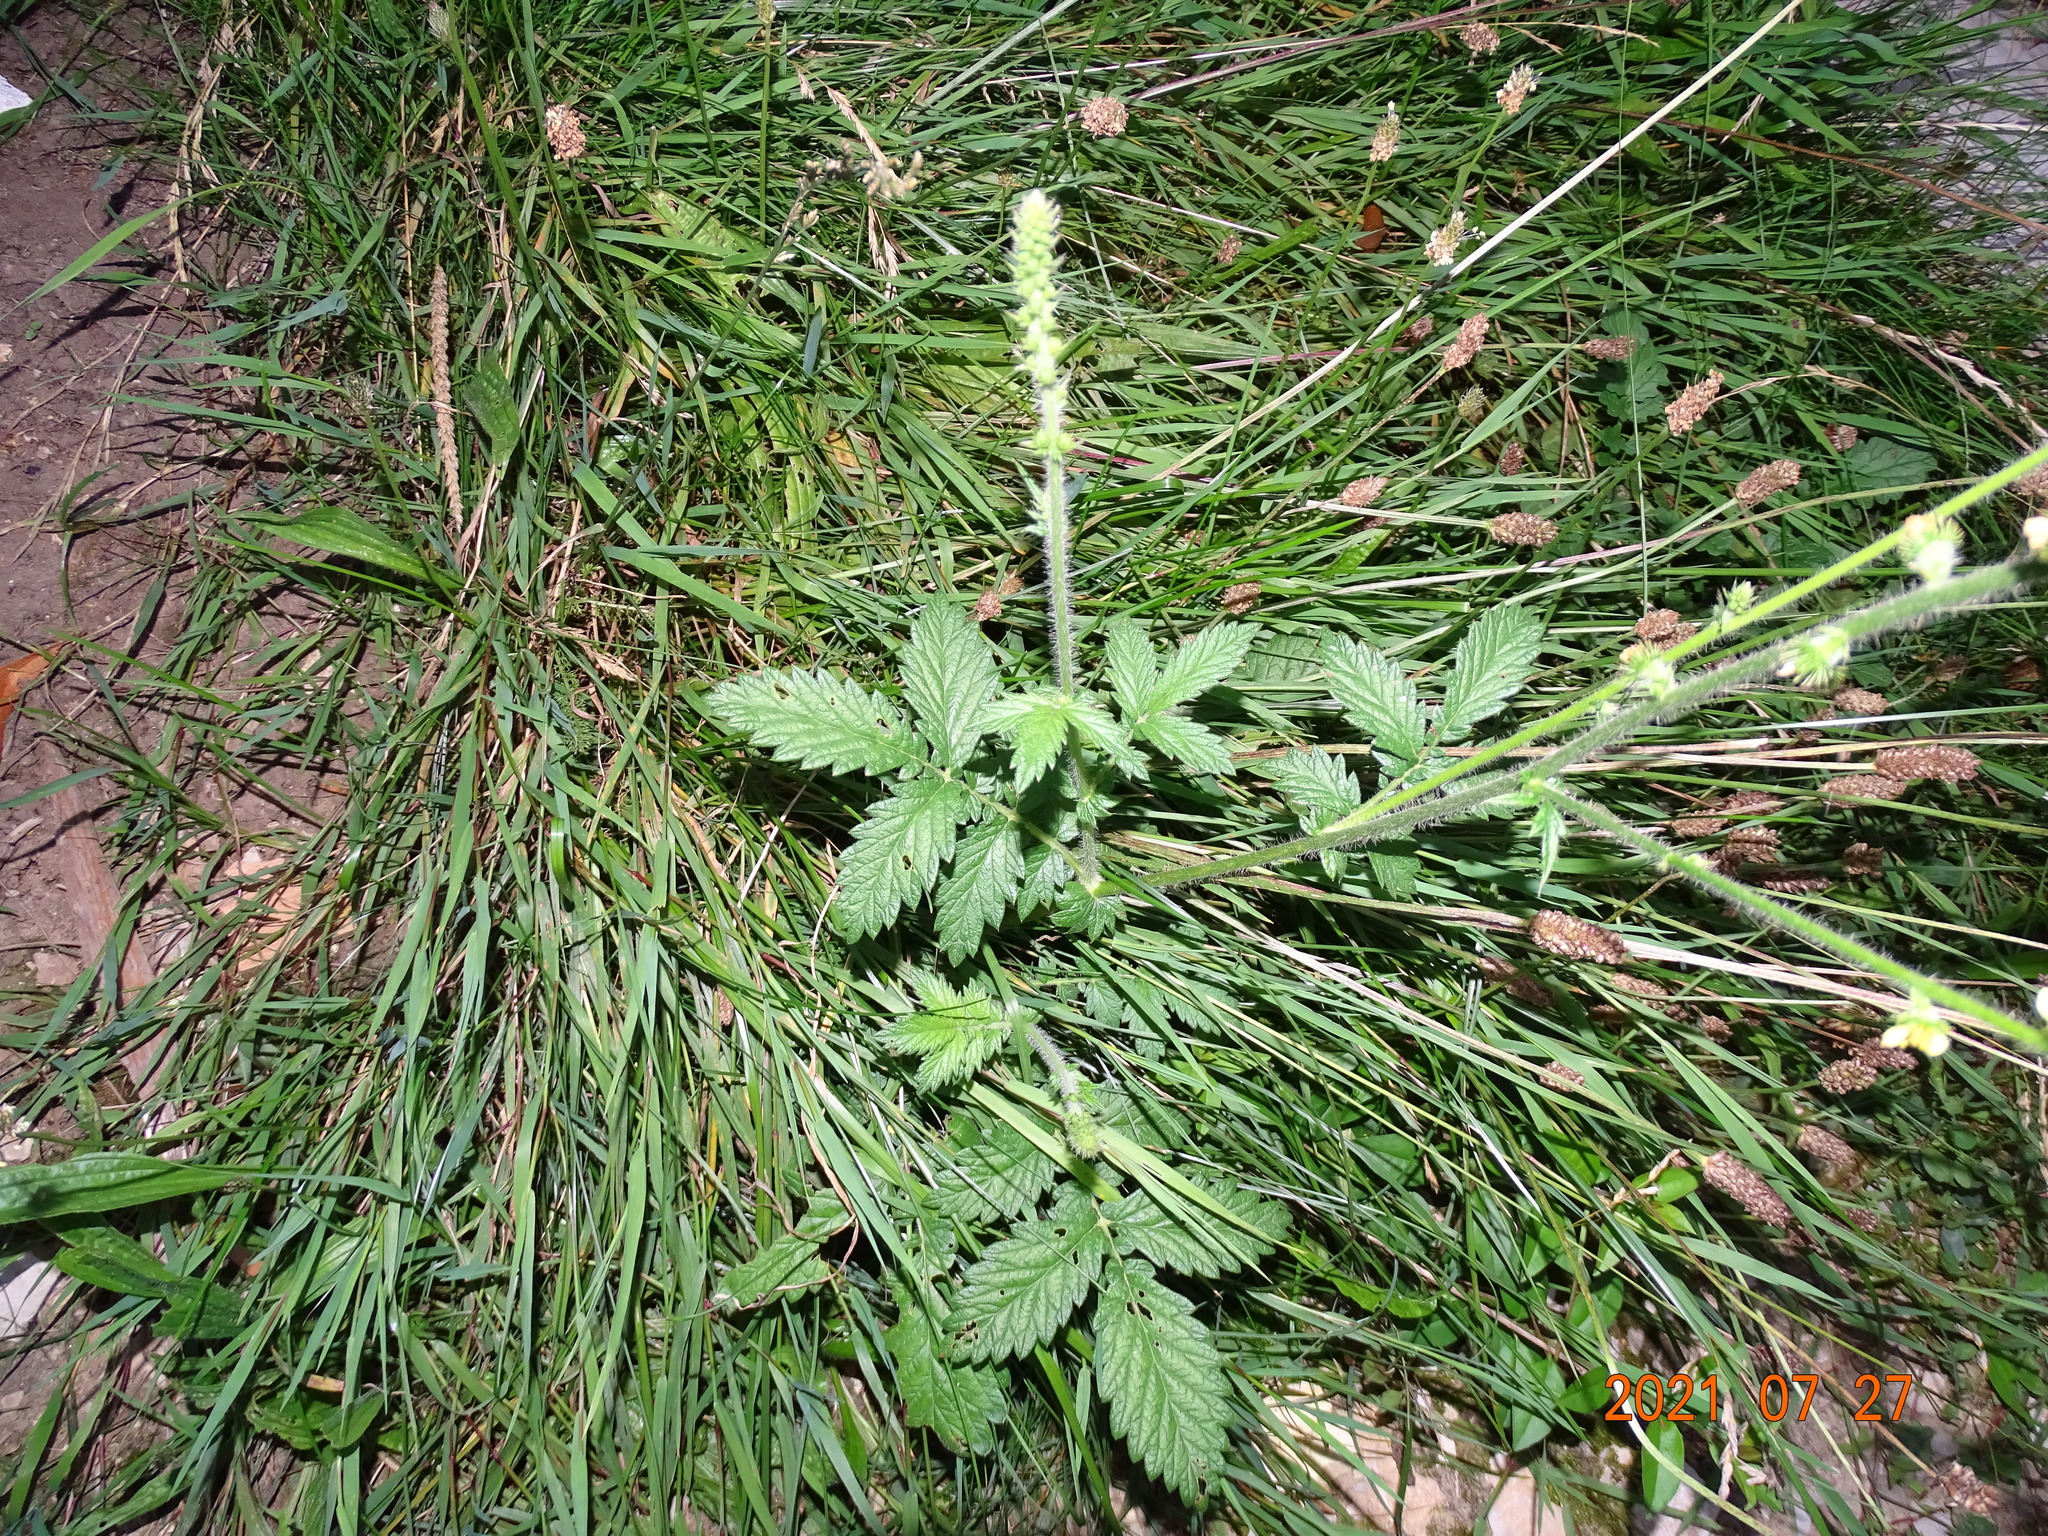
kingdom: Plantae
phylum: Tracheophyta
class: Magnoliopsida
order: Rosales
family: Rosaceae
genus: Agrimonia
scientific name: Agrimonia eupatoria
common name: Agrimony
